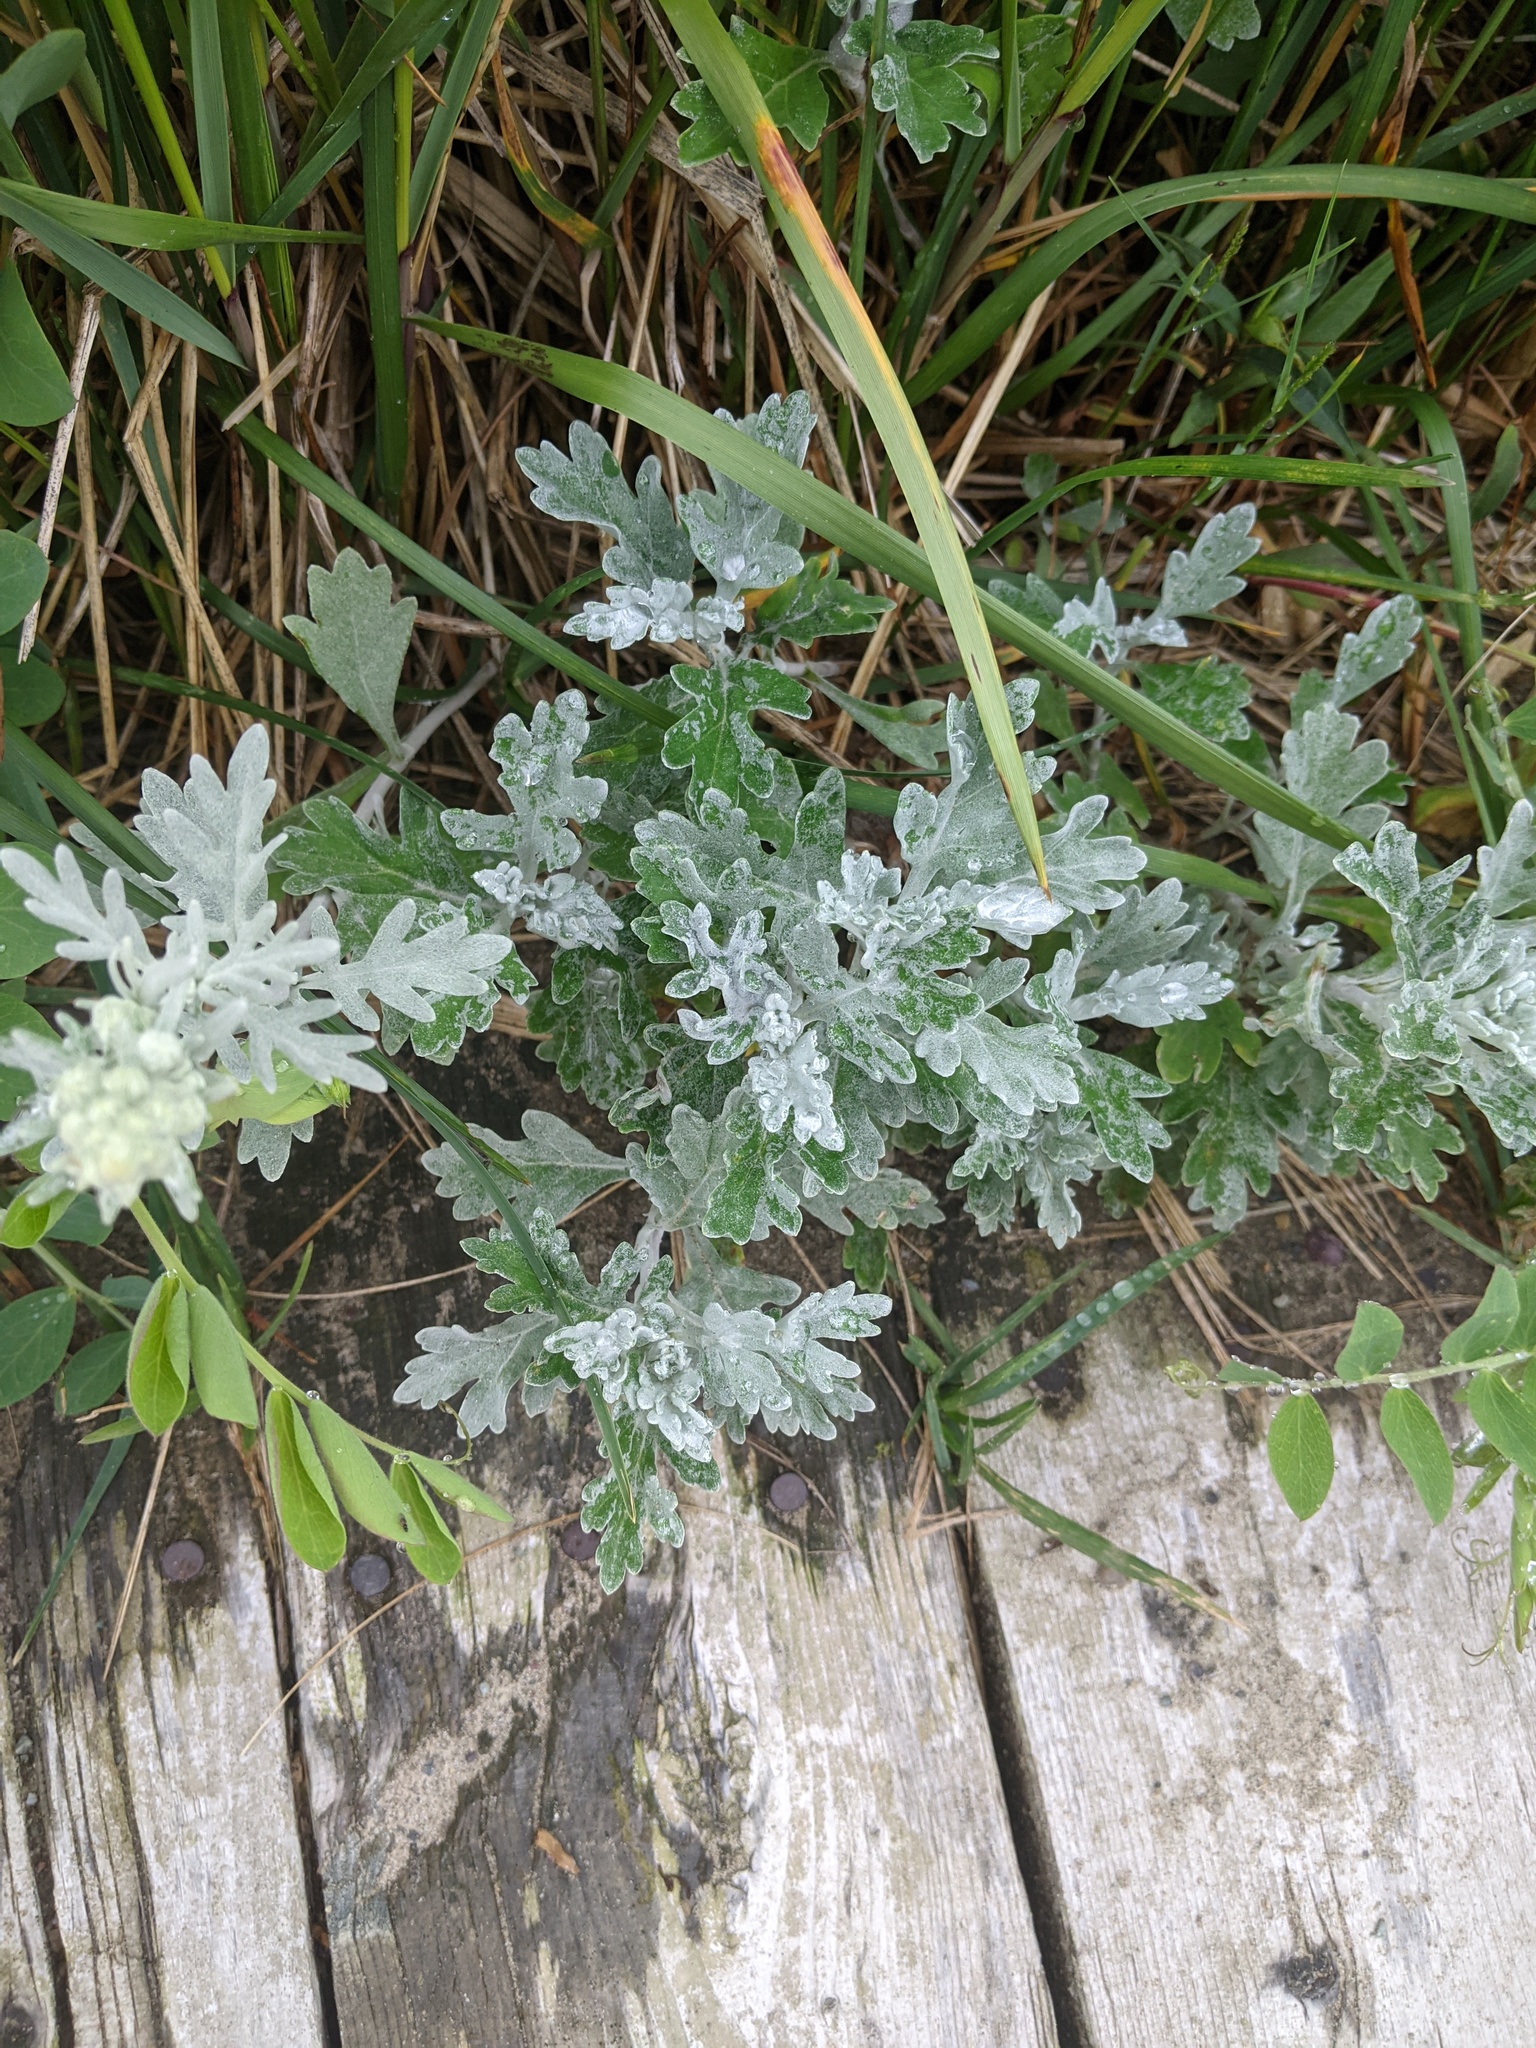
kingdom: Plantae
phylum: Tracheophyta
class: Magnoliopsida
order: Asterales
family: Asteraceae
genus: Artemisia
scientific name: Artemisia stelleriana
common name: Beach wormwood
